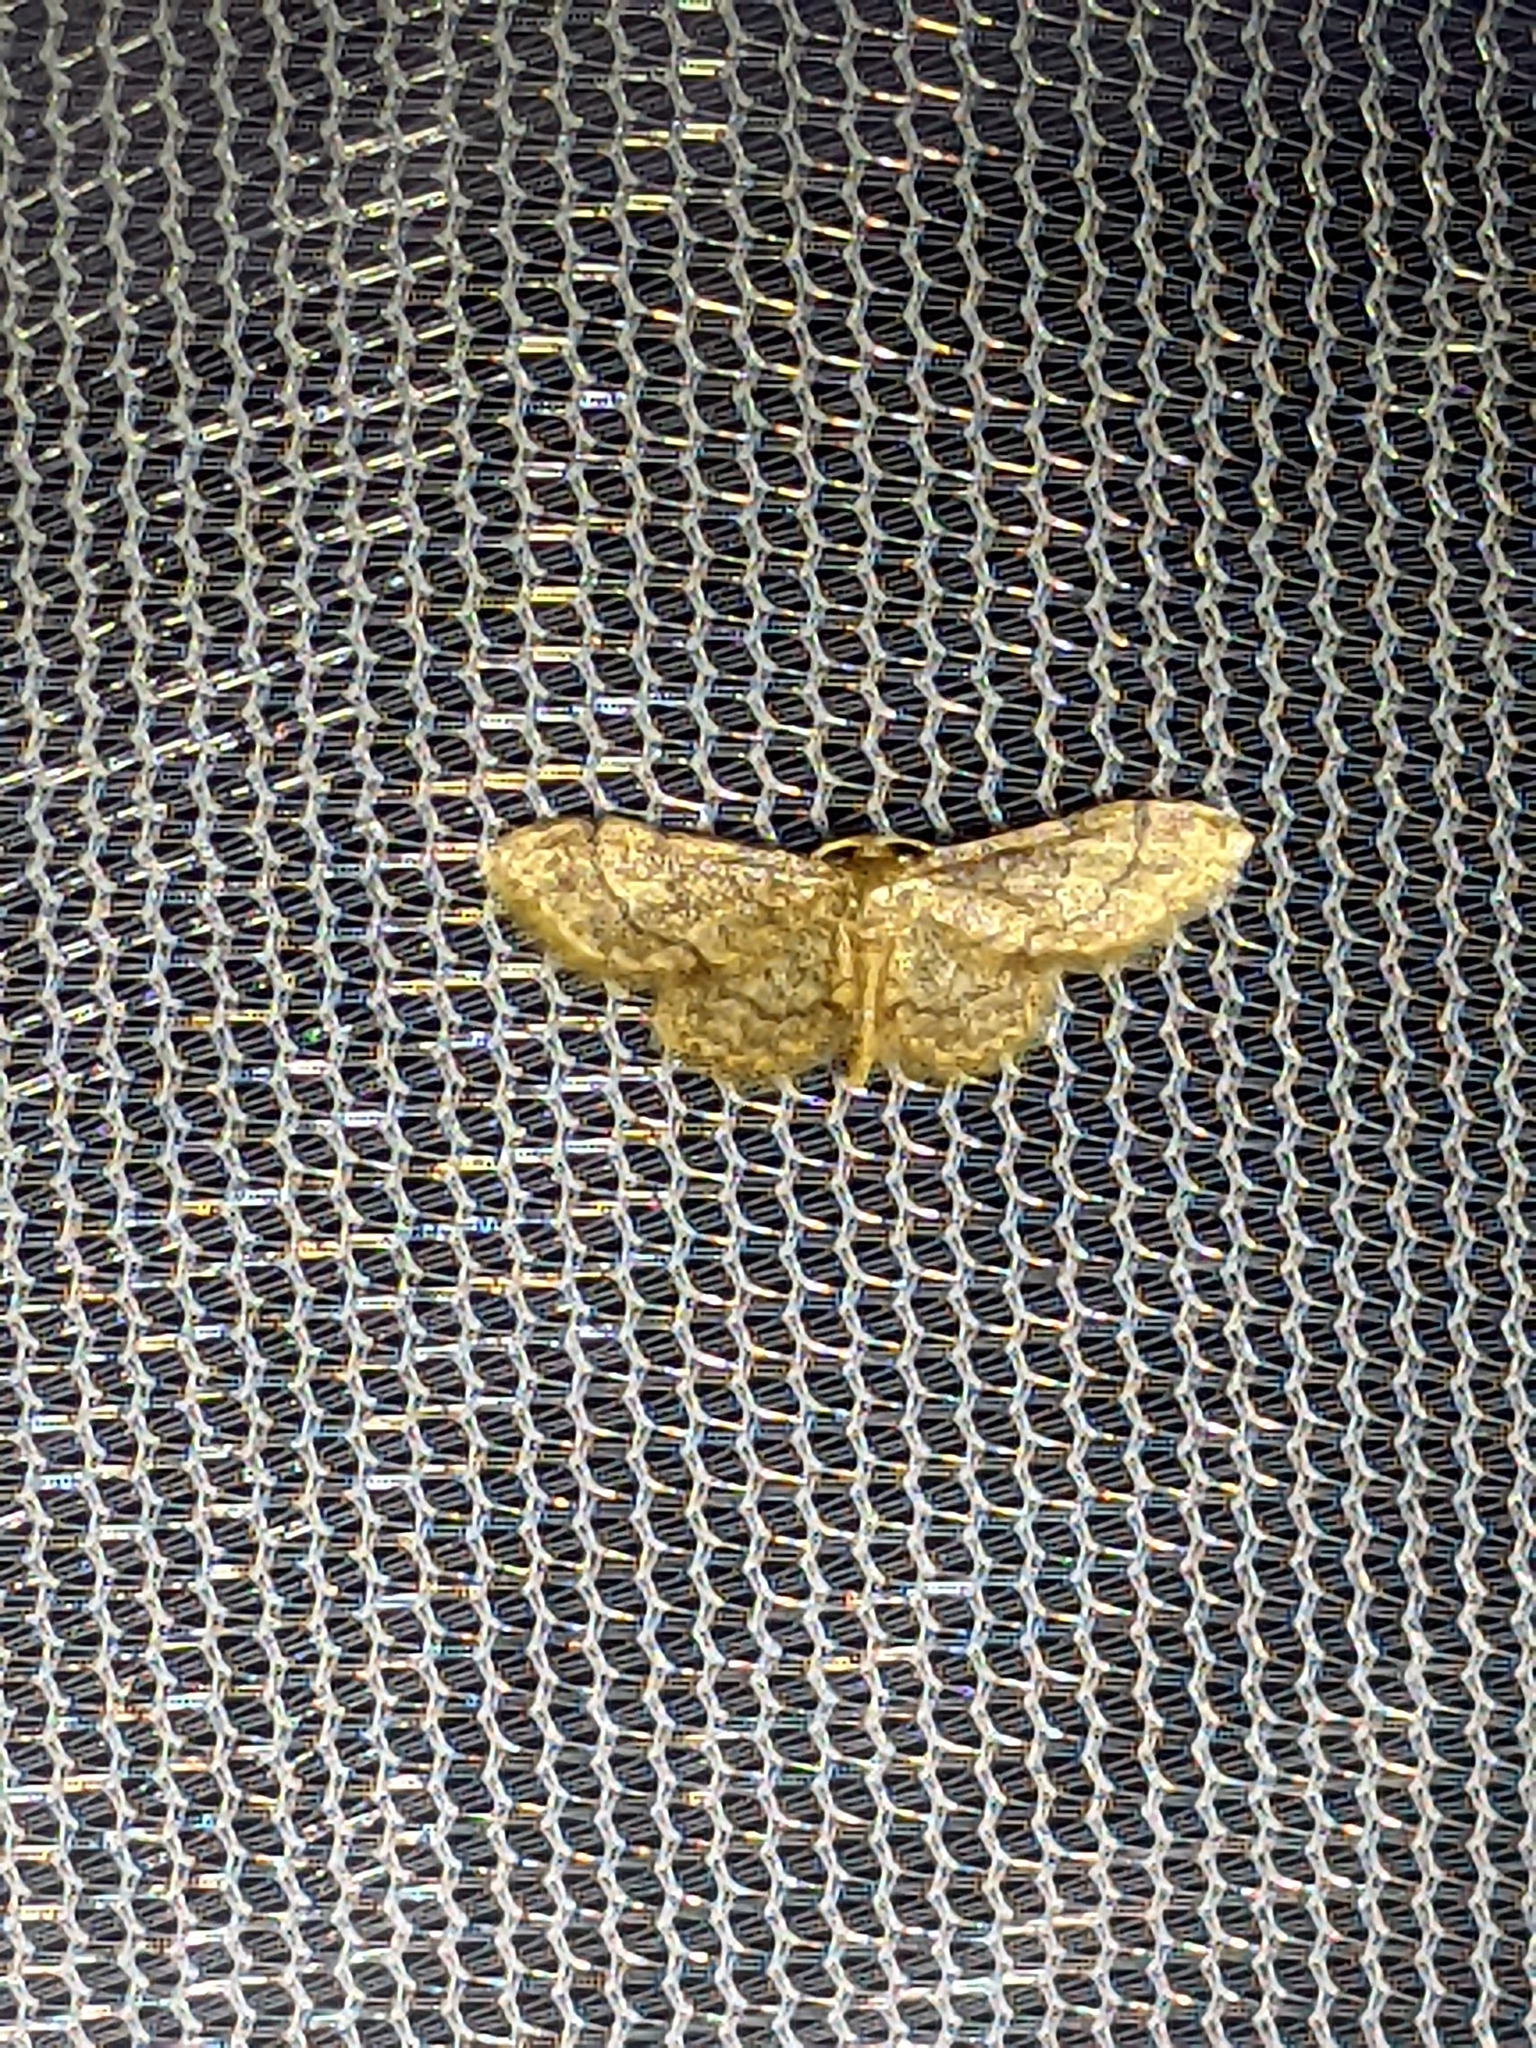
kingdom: Animalia
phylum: Arthropoda
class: Insecta
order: Lepidoptera
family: Geometridae
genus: Idaea
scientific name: Idaea celtima
